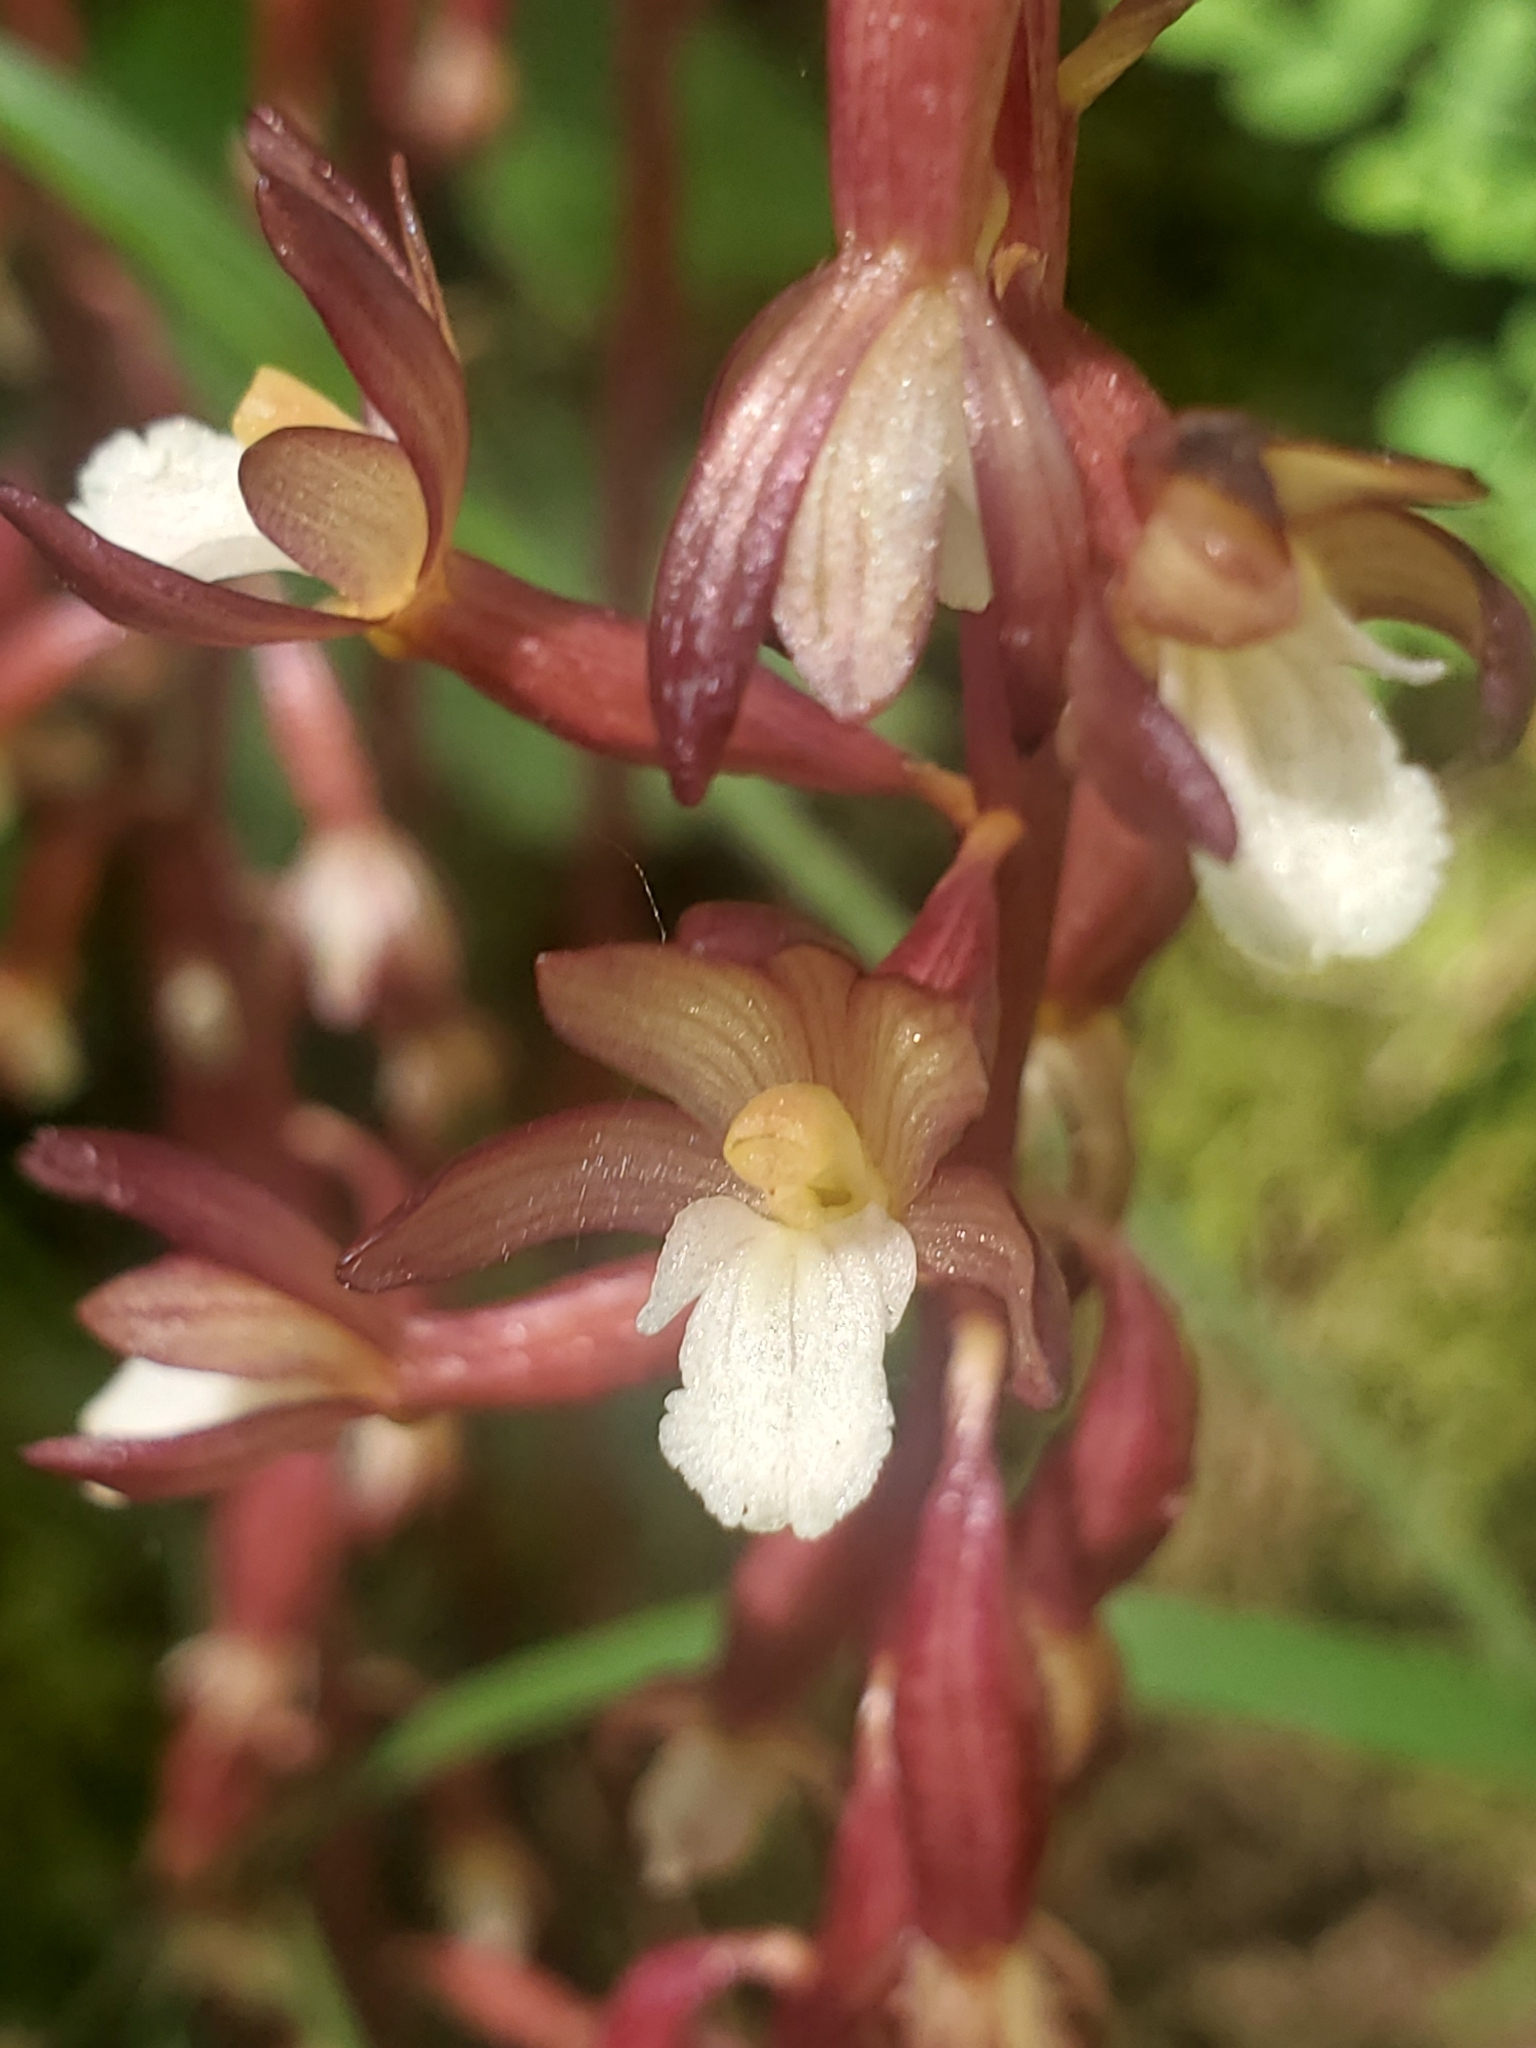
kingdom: Plantae
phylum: Tracheophyta
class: Liliopsida
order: Asparagales
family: Orchidaceae
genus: Corallorhiza
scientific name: Corallorhiza maculata
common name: Spotted coralroot
